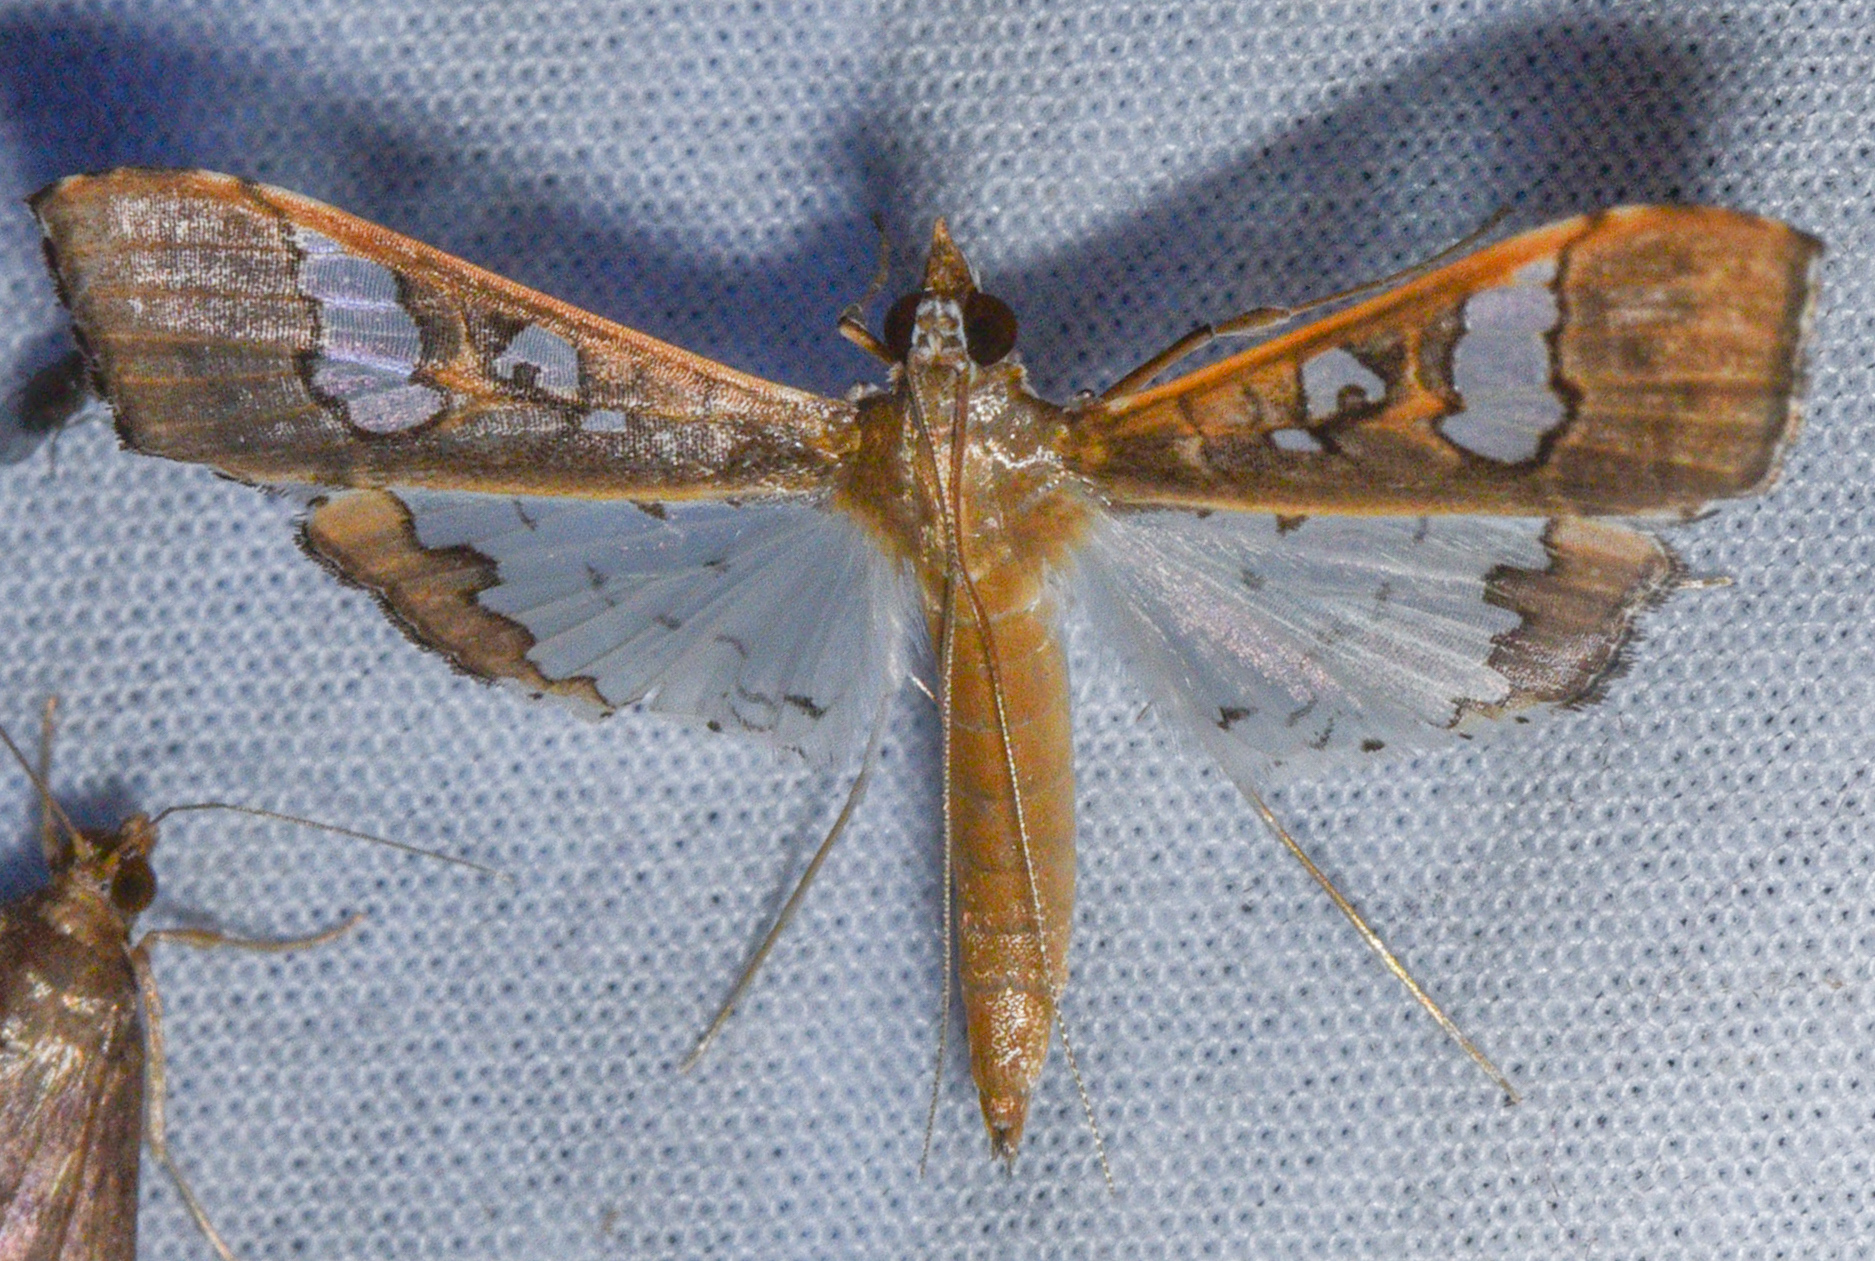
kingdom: Animalia
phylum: Arthropoda
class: Insecta
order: Lepidoptera
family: Crambidae
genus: Maruca
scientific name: Maruca vitrata
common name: Maruca pod borer
